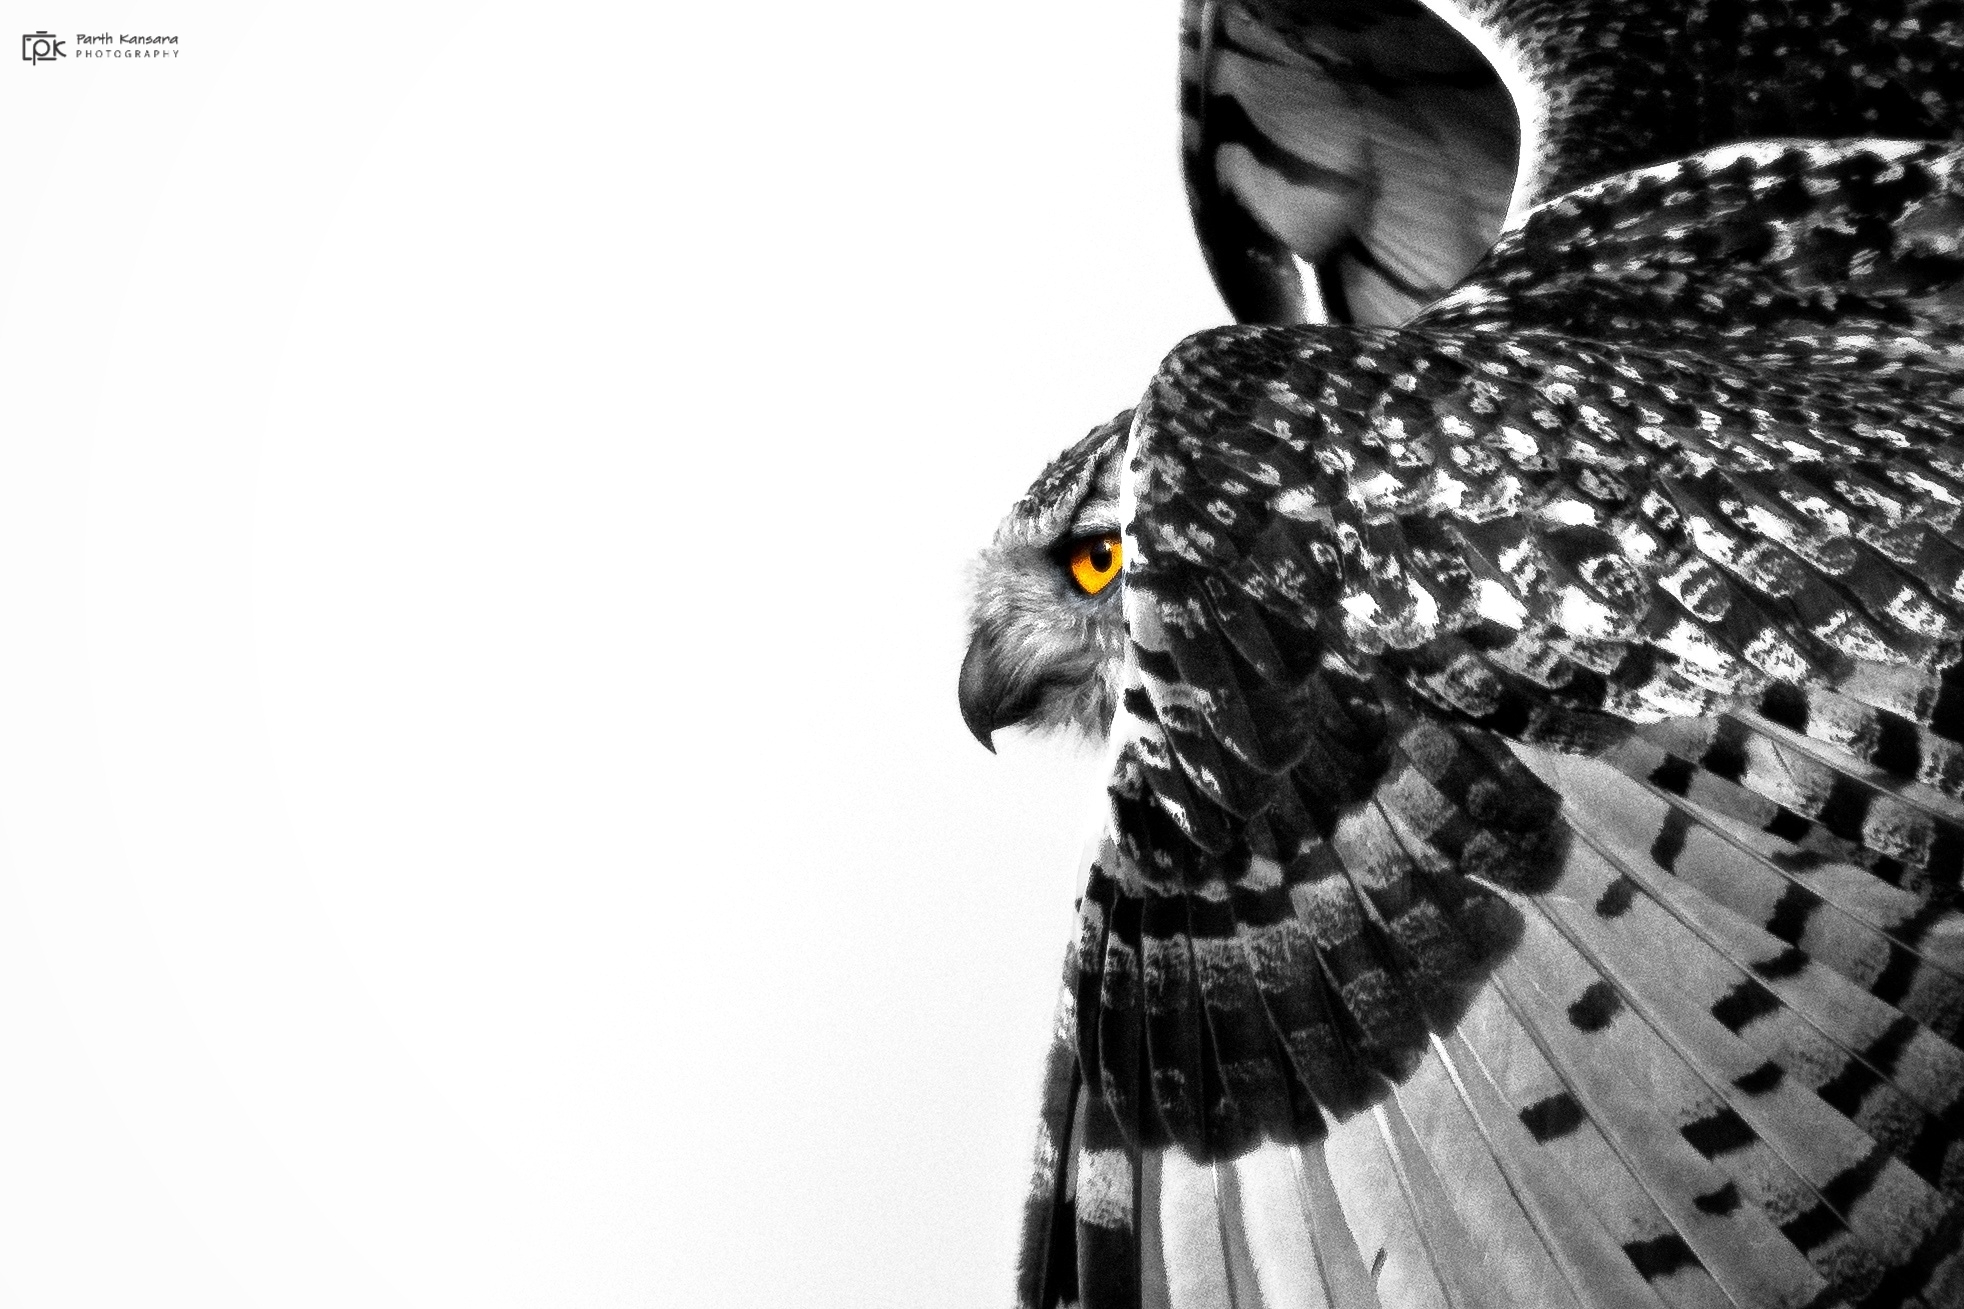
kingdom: Animalia
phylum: Chordata
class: Aves
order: Strigiformes
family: Strigidae
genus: Bubo
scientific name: Bubo bengalensis
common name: Indian eagle-owl
